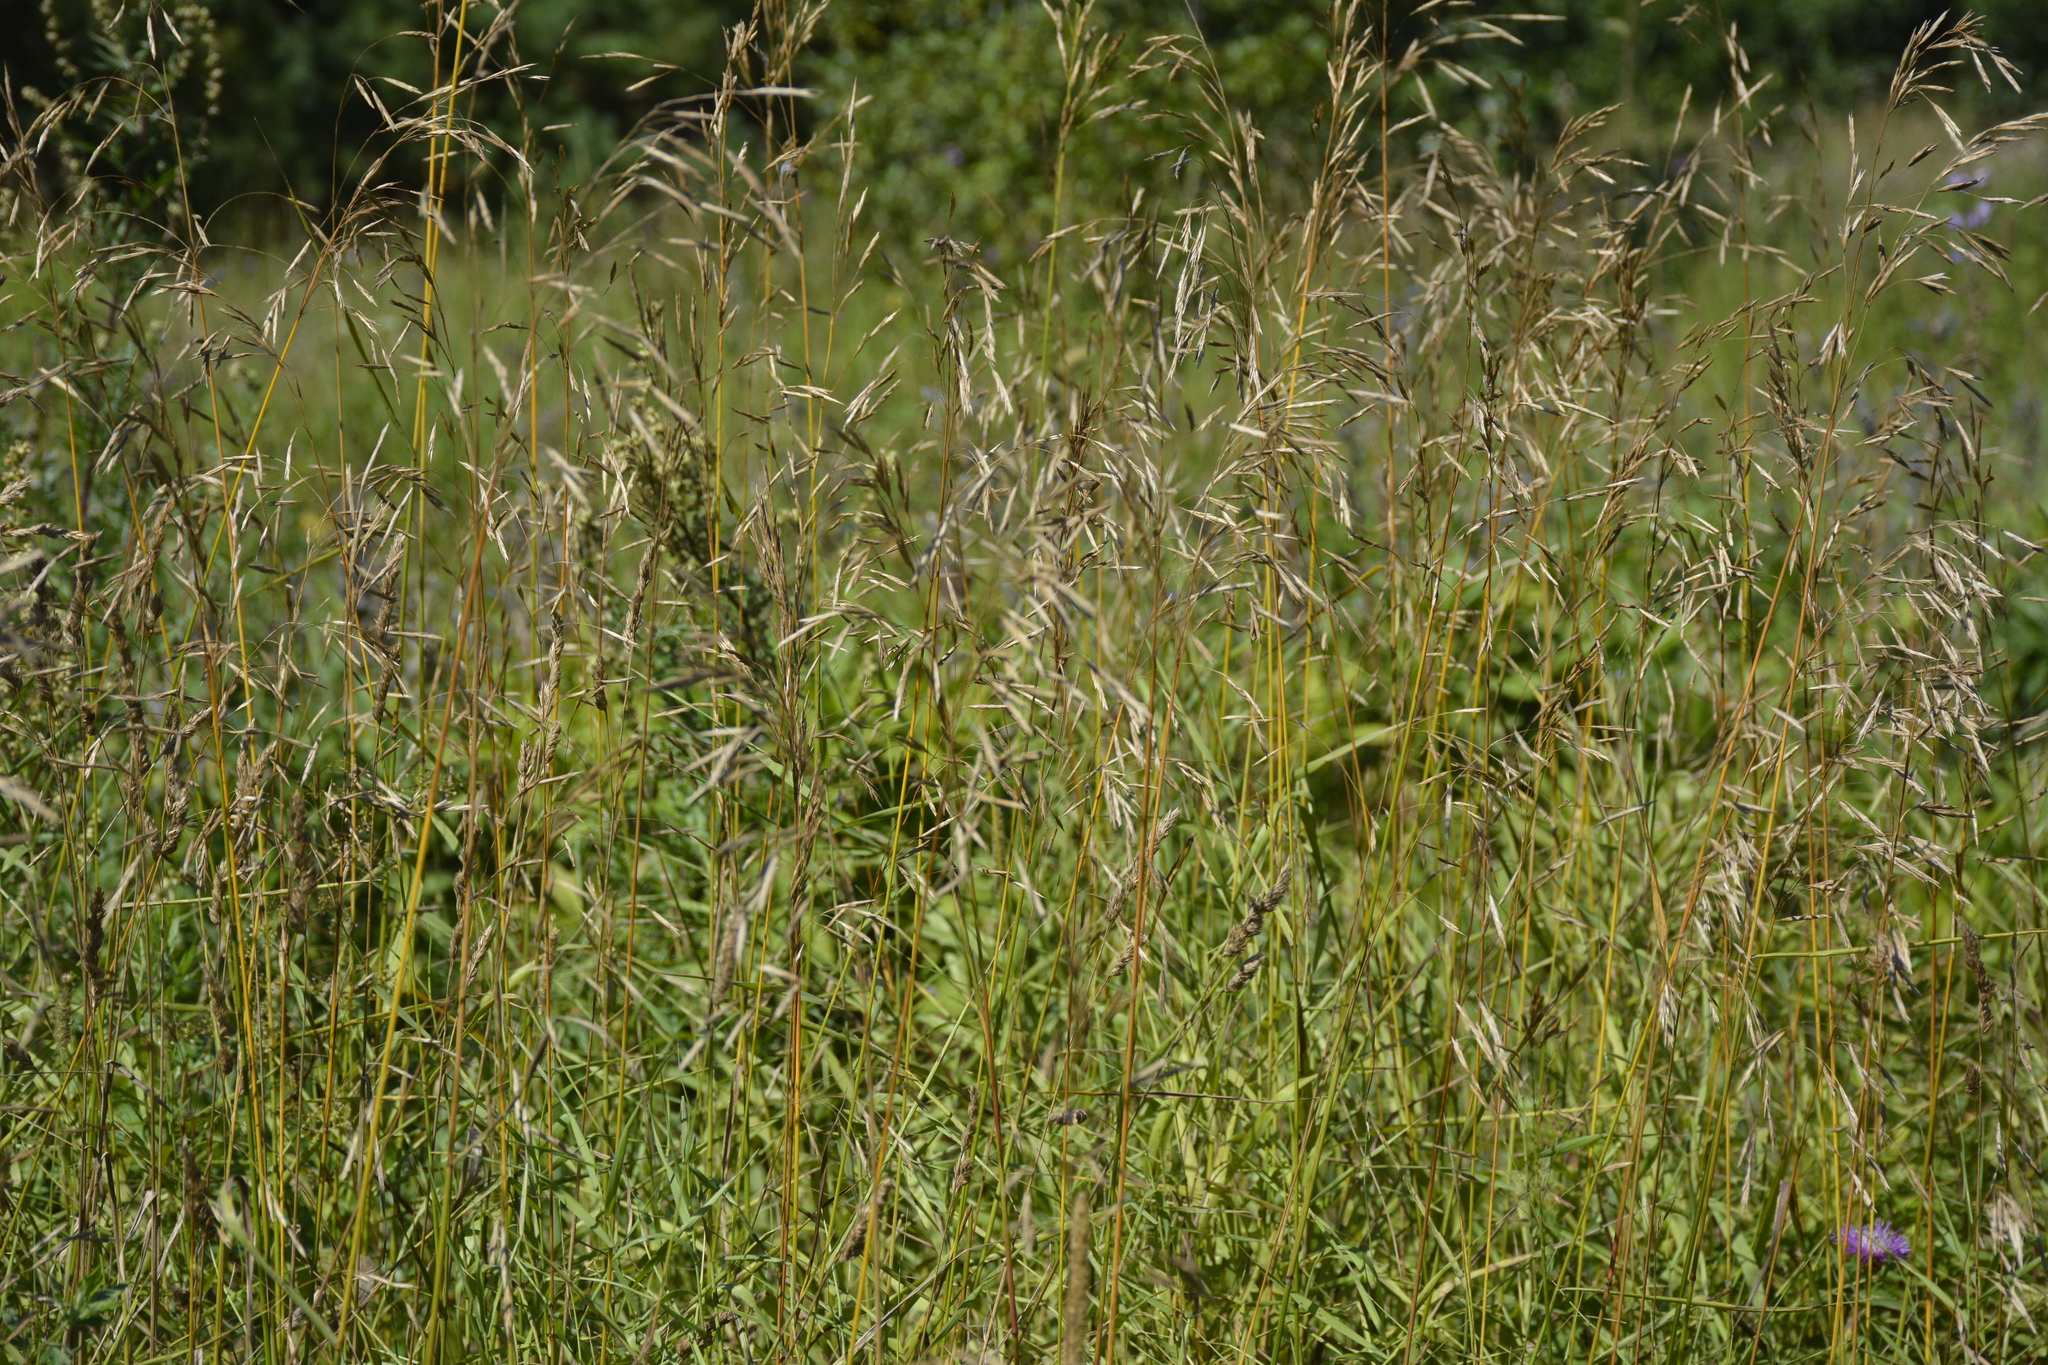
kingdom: Plantae
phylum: Tracheophyta
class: Liliopsida
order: Poales
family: Poaceae
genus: Bromus
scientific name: Bromus inermis
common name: Smooth brome
